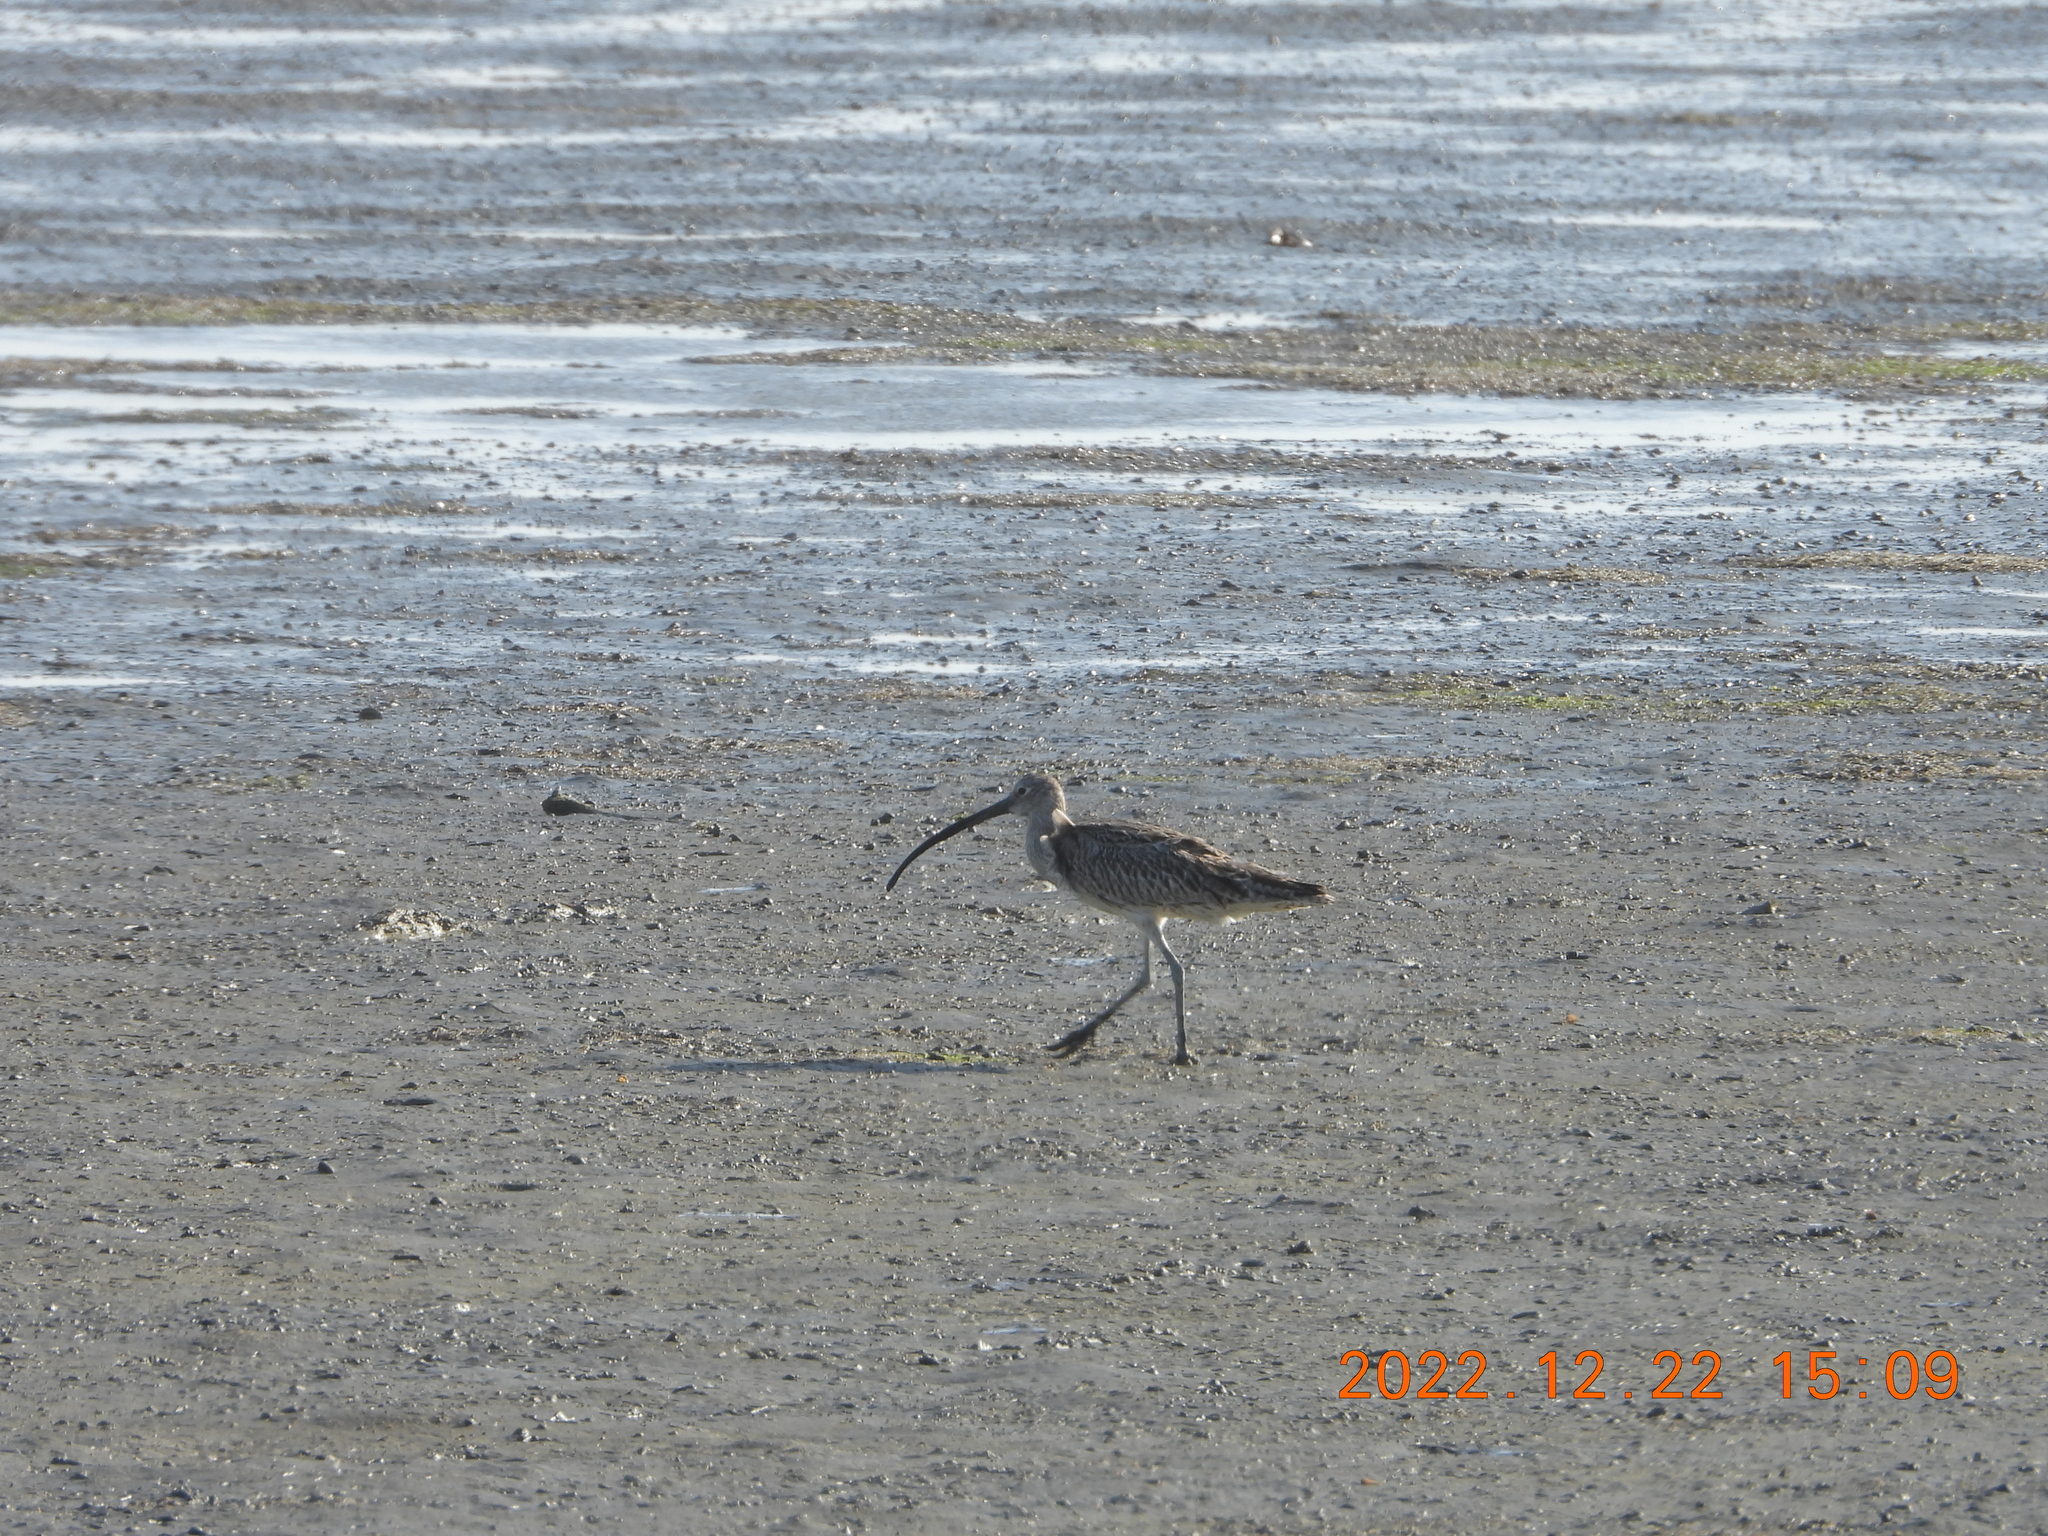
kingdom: Animalia
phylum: Chordata
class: Aves
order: Charadriiformes
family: Scolopacidae
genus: Numenius
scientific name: Numenius arquata
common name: Eurasian curlew
